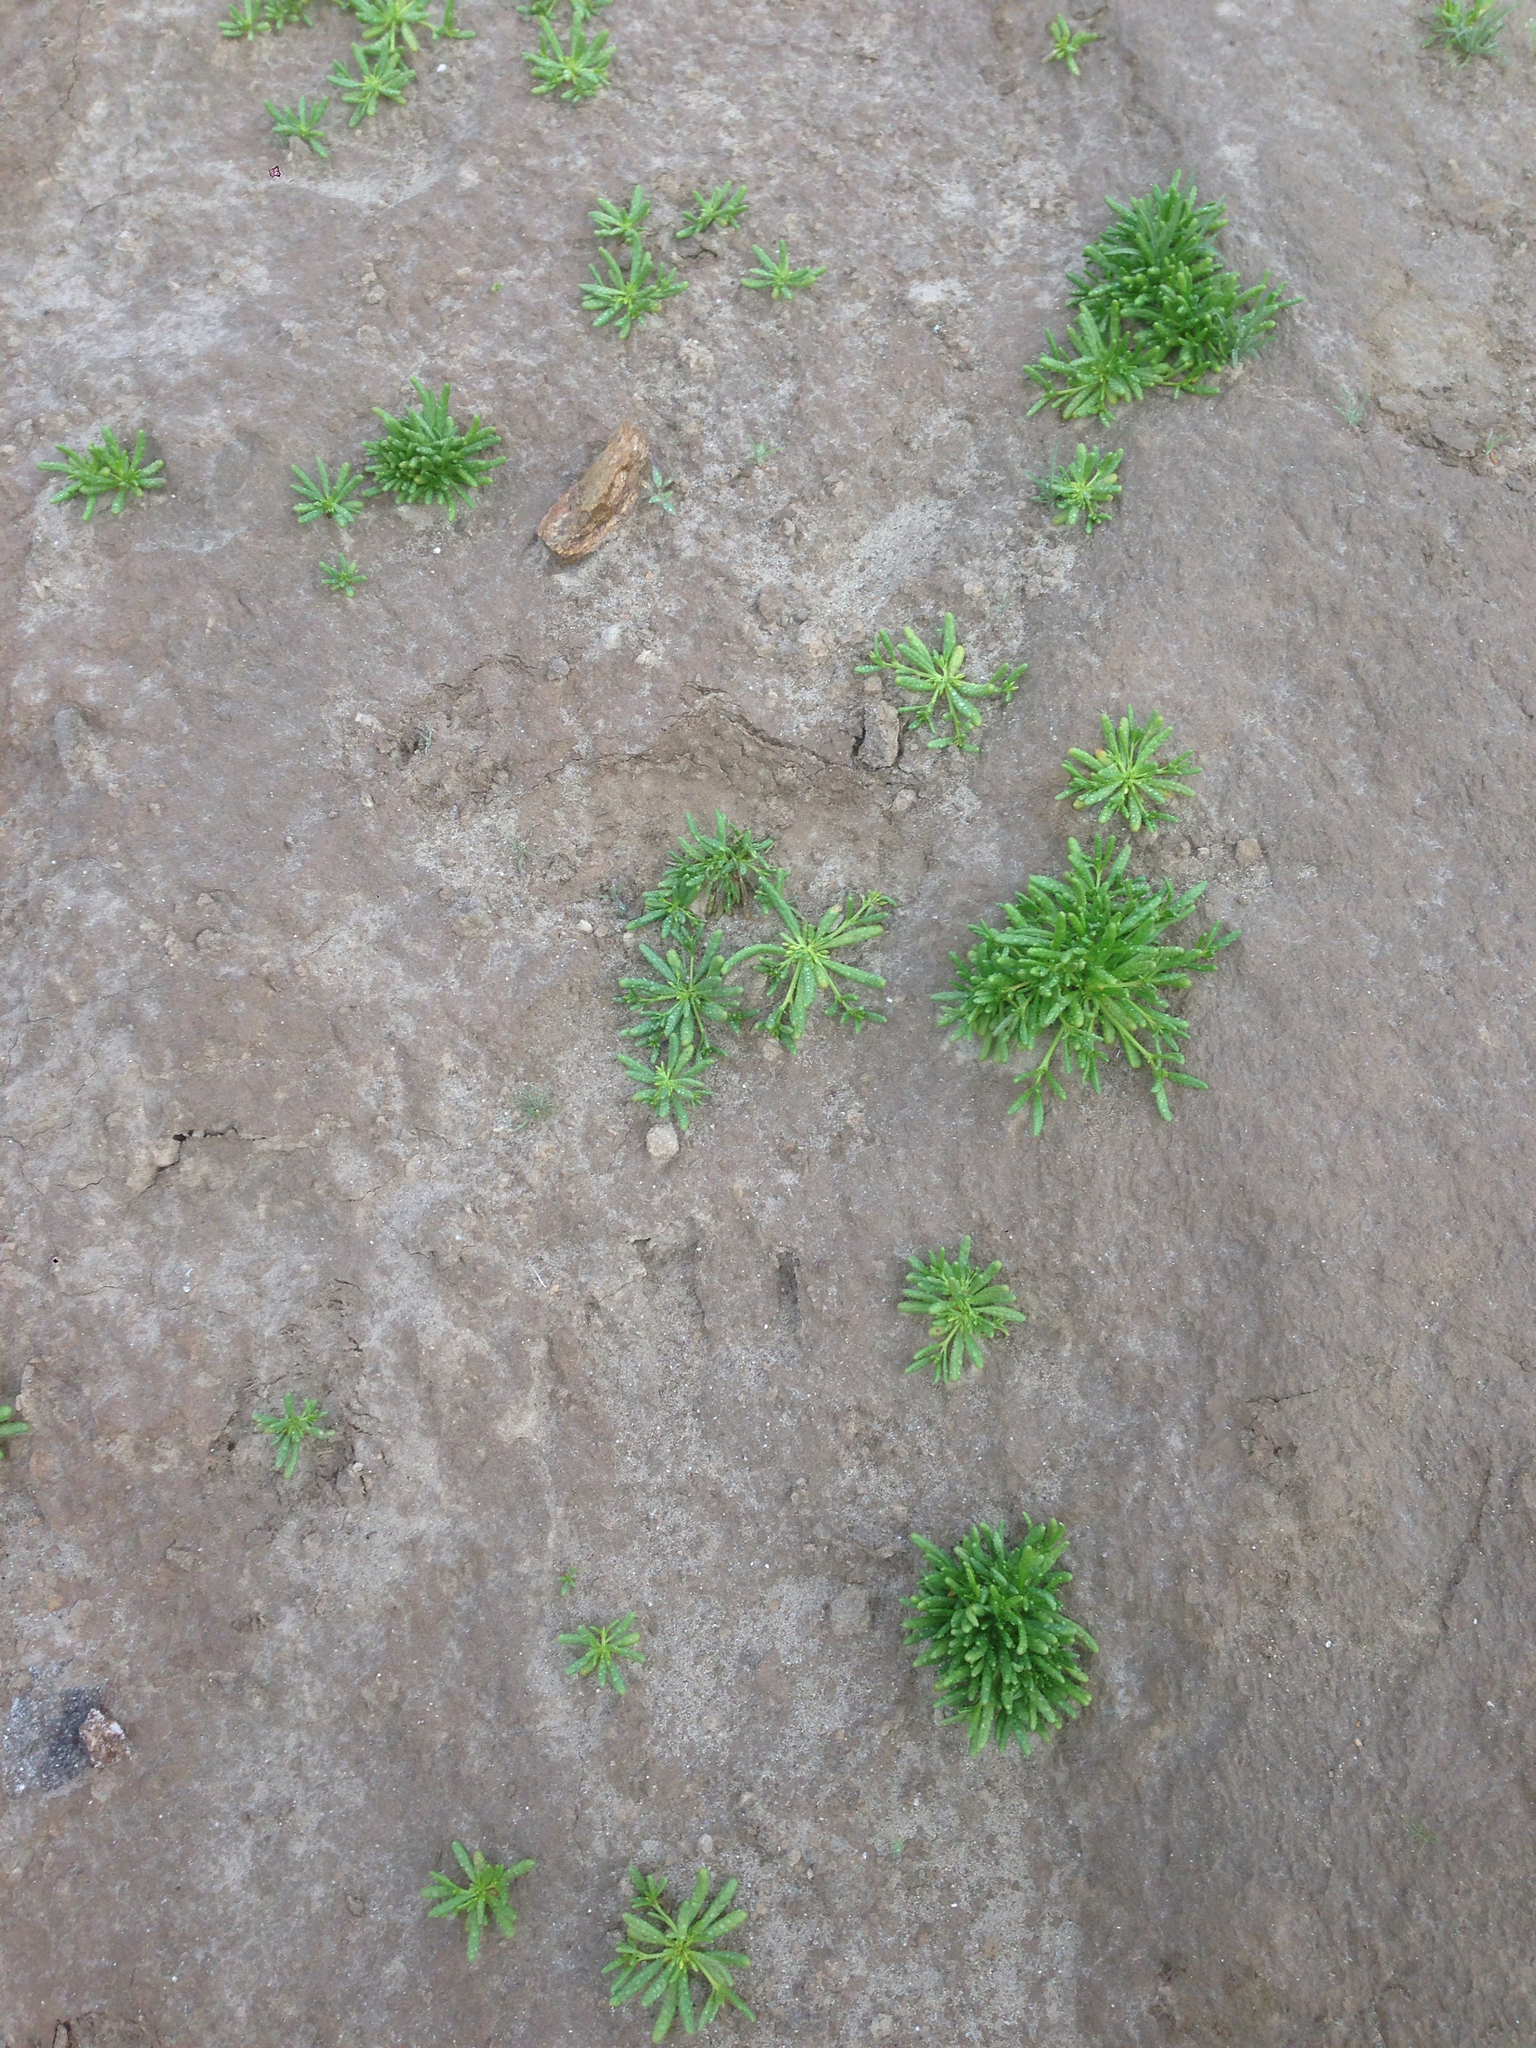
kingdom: Plantae
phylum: Tracheophyta
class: Magnoliopsida
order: Caryophyllales
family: Montiaceae
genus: Thingia
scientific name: Thingia ambigua
